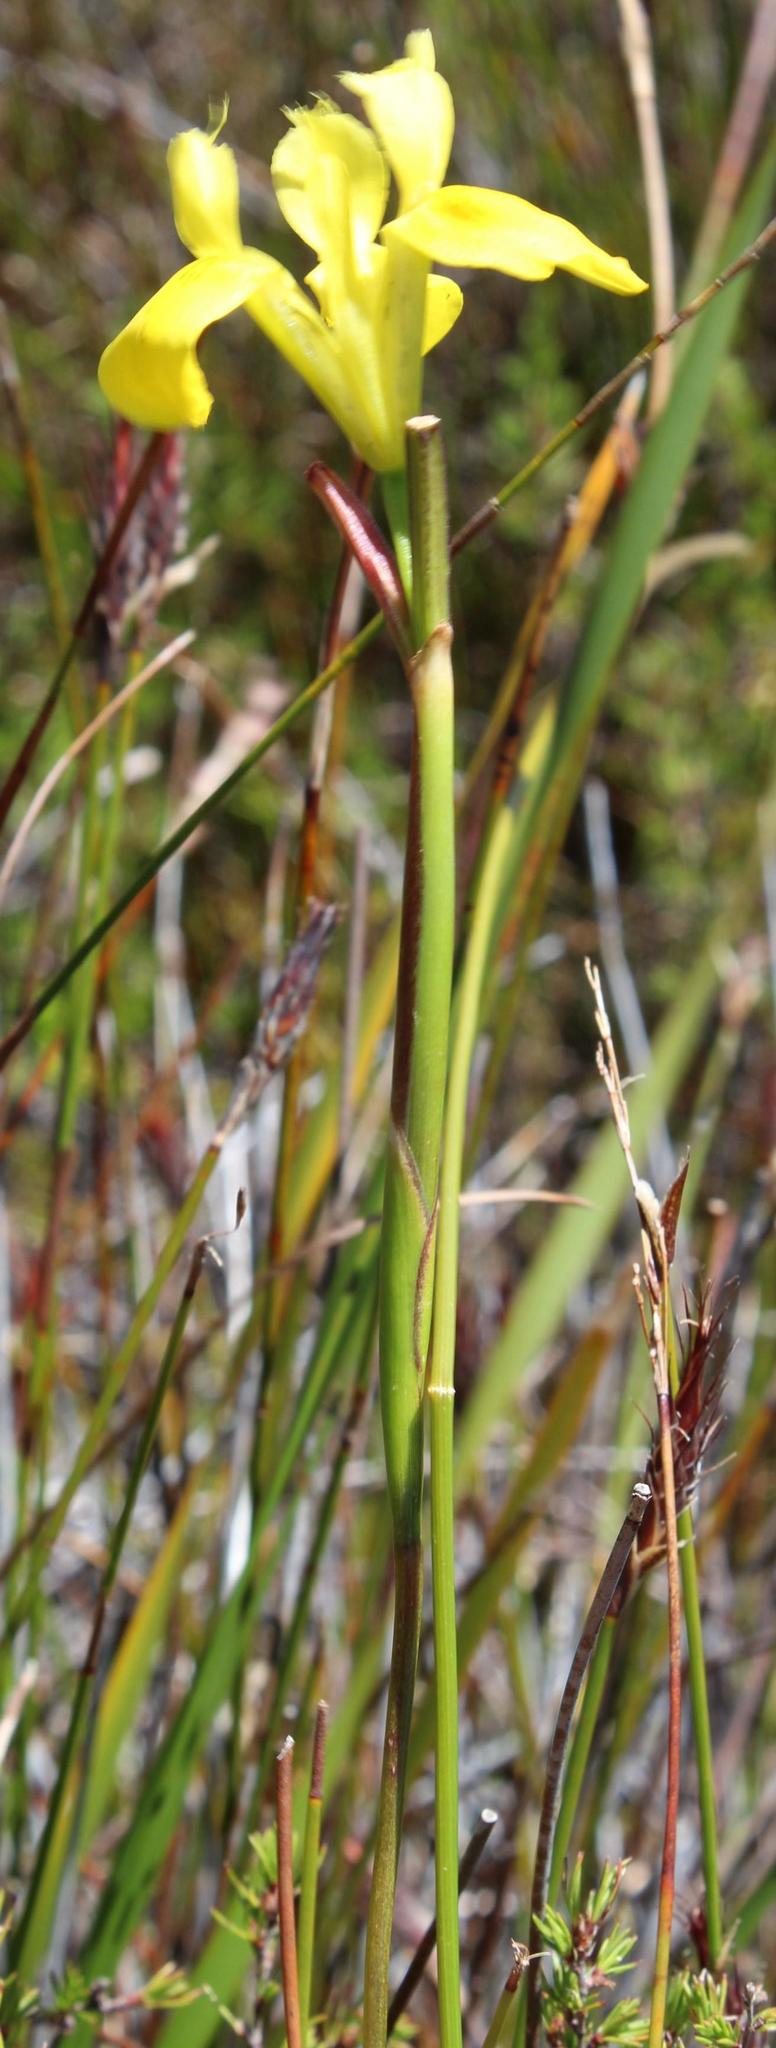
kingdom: Plantae
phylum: Tracheophyta
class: Liliopsida
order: Asparagales
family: Iridaceae
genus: Moraea
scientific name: Moraea neglecta
